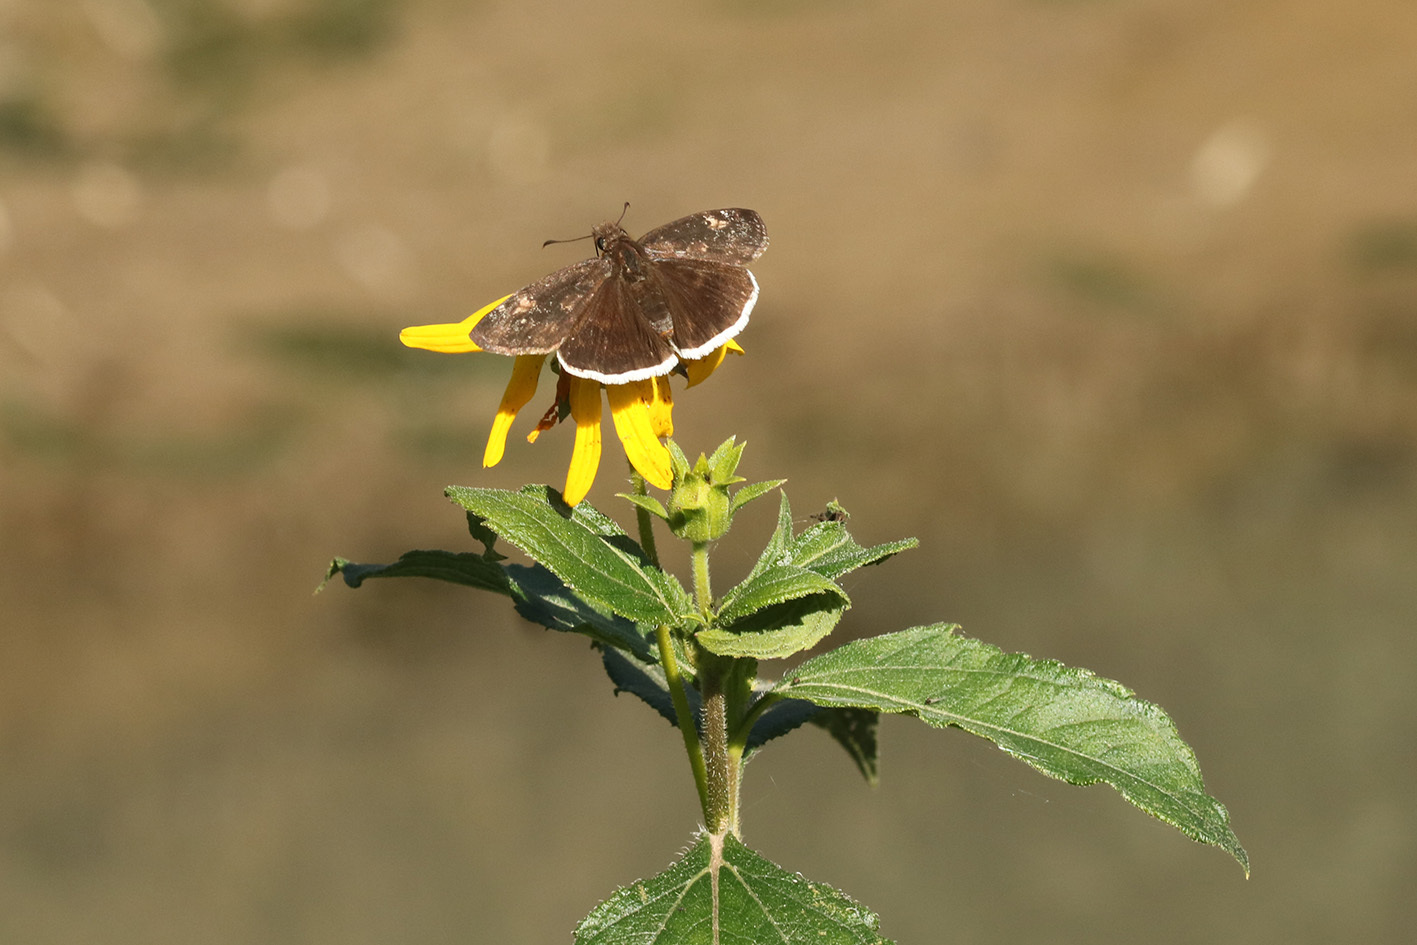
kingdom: Animalia
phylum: Arthropoda
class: Insecta
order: Lepidoptera
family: Hesperiidae
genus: Erynnis
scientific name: Erynnis funeralis
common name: Funereal duskywing
